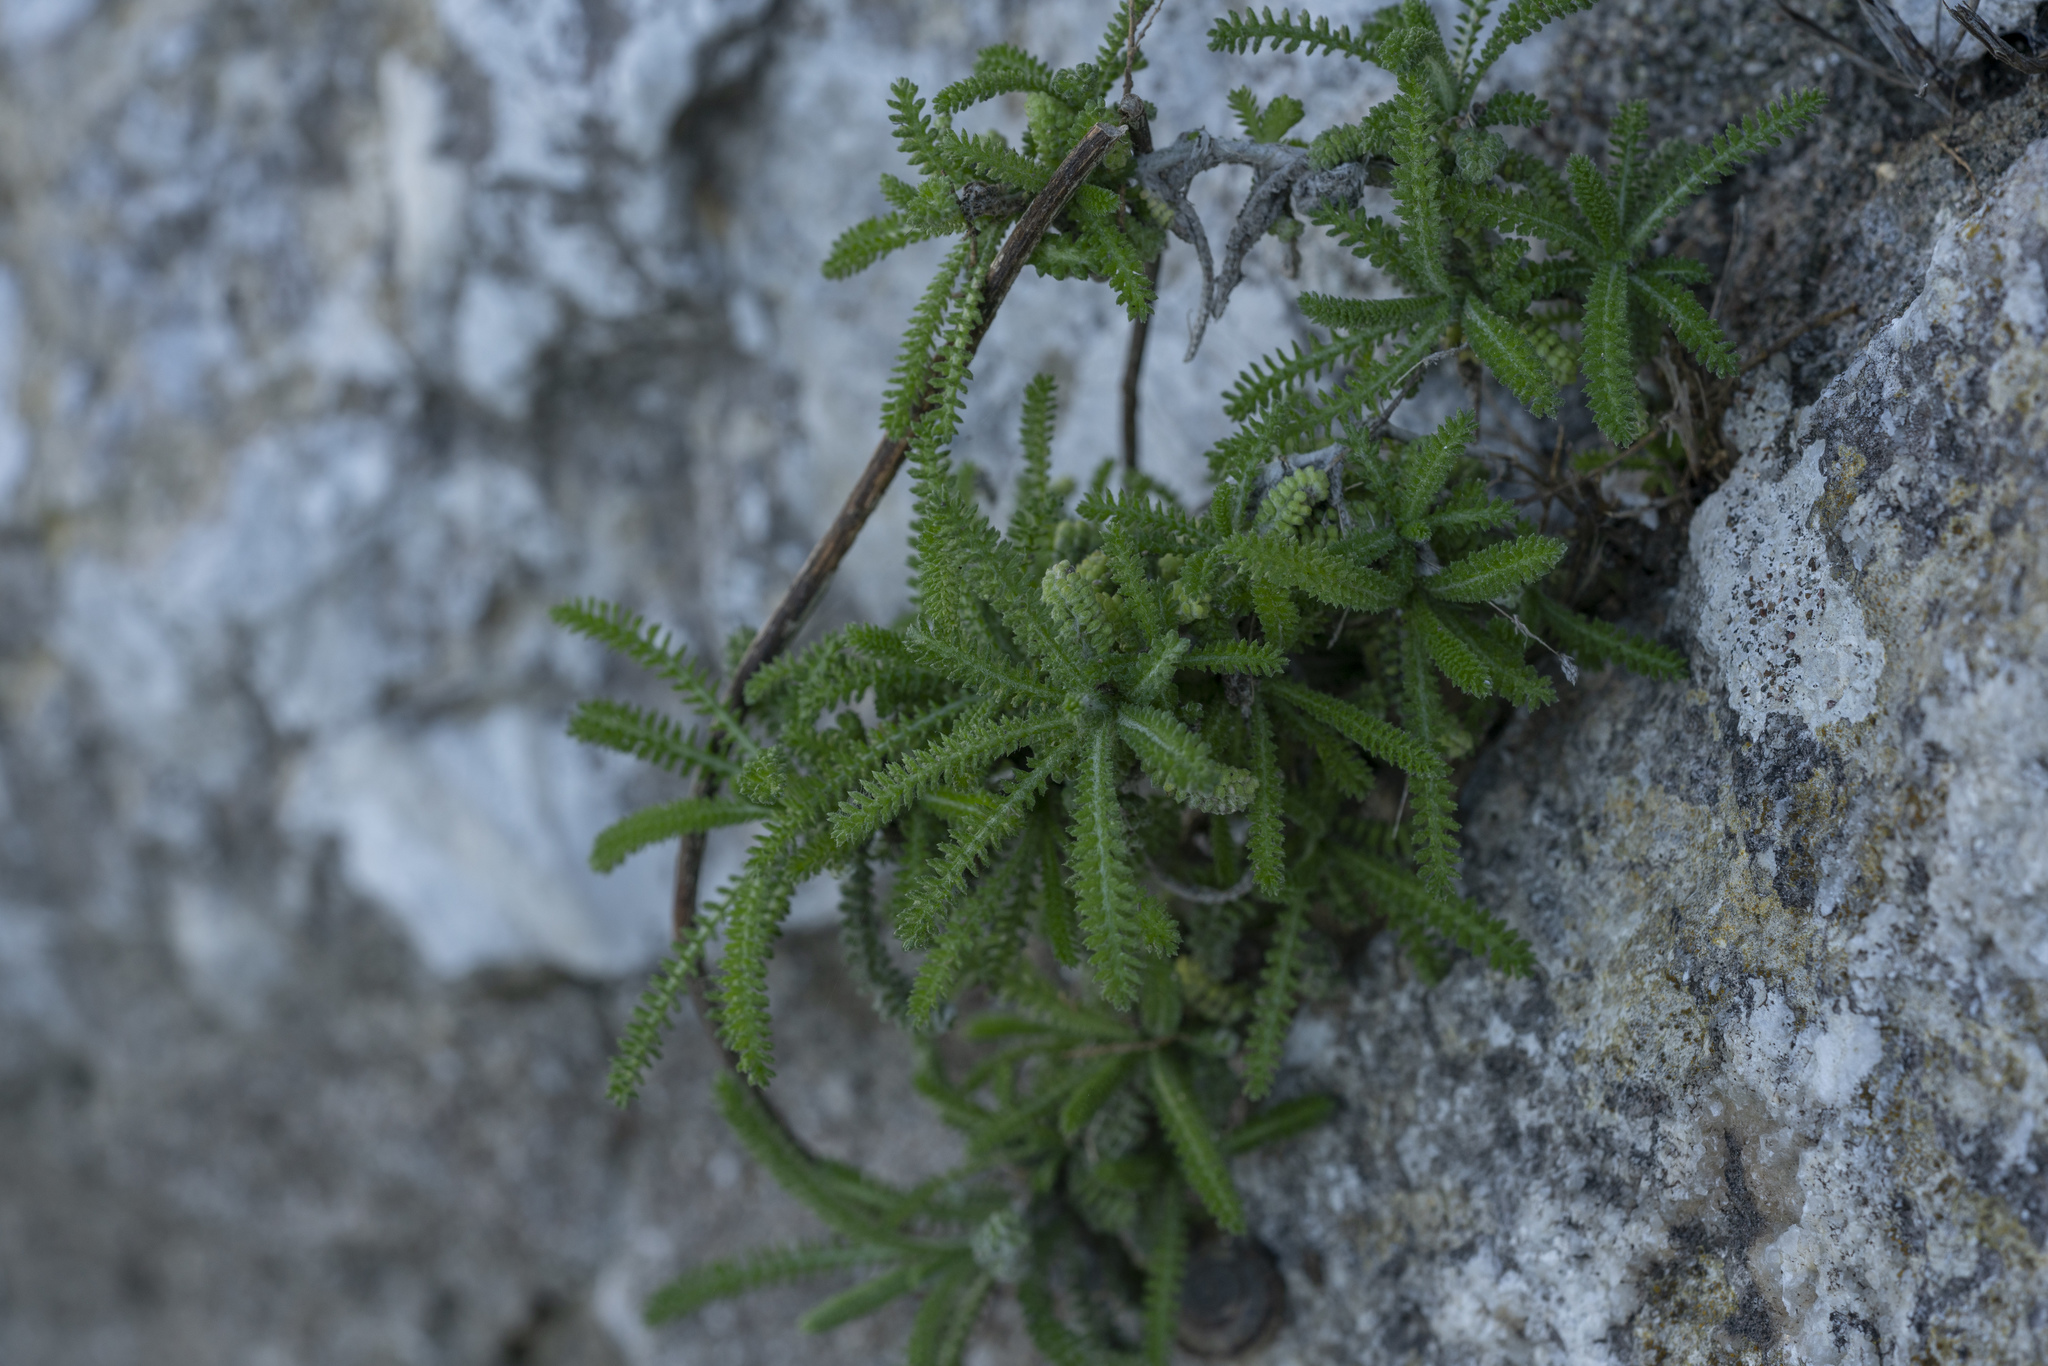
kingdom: Plantae
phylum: Tracheophyta
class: Magnoliopsida
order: Asterales
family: Asteraceae
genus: Achillea
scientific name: Achillea cretica
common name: Chamomile-leaved lavender-cotton
